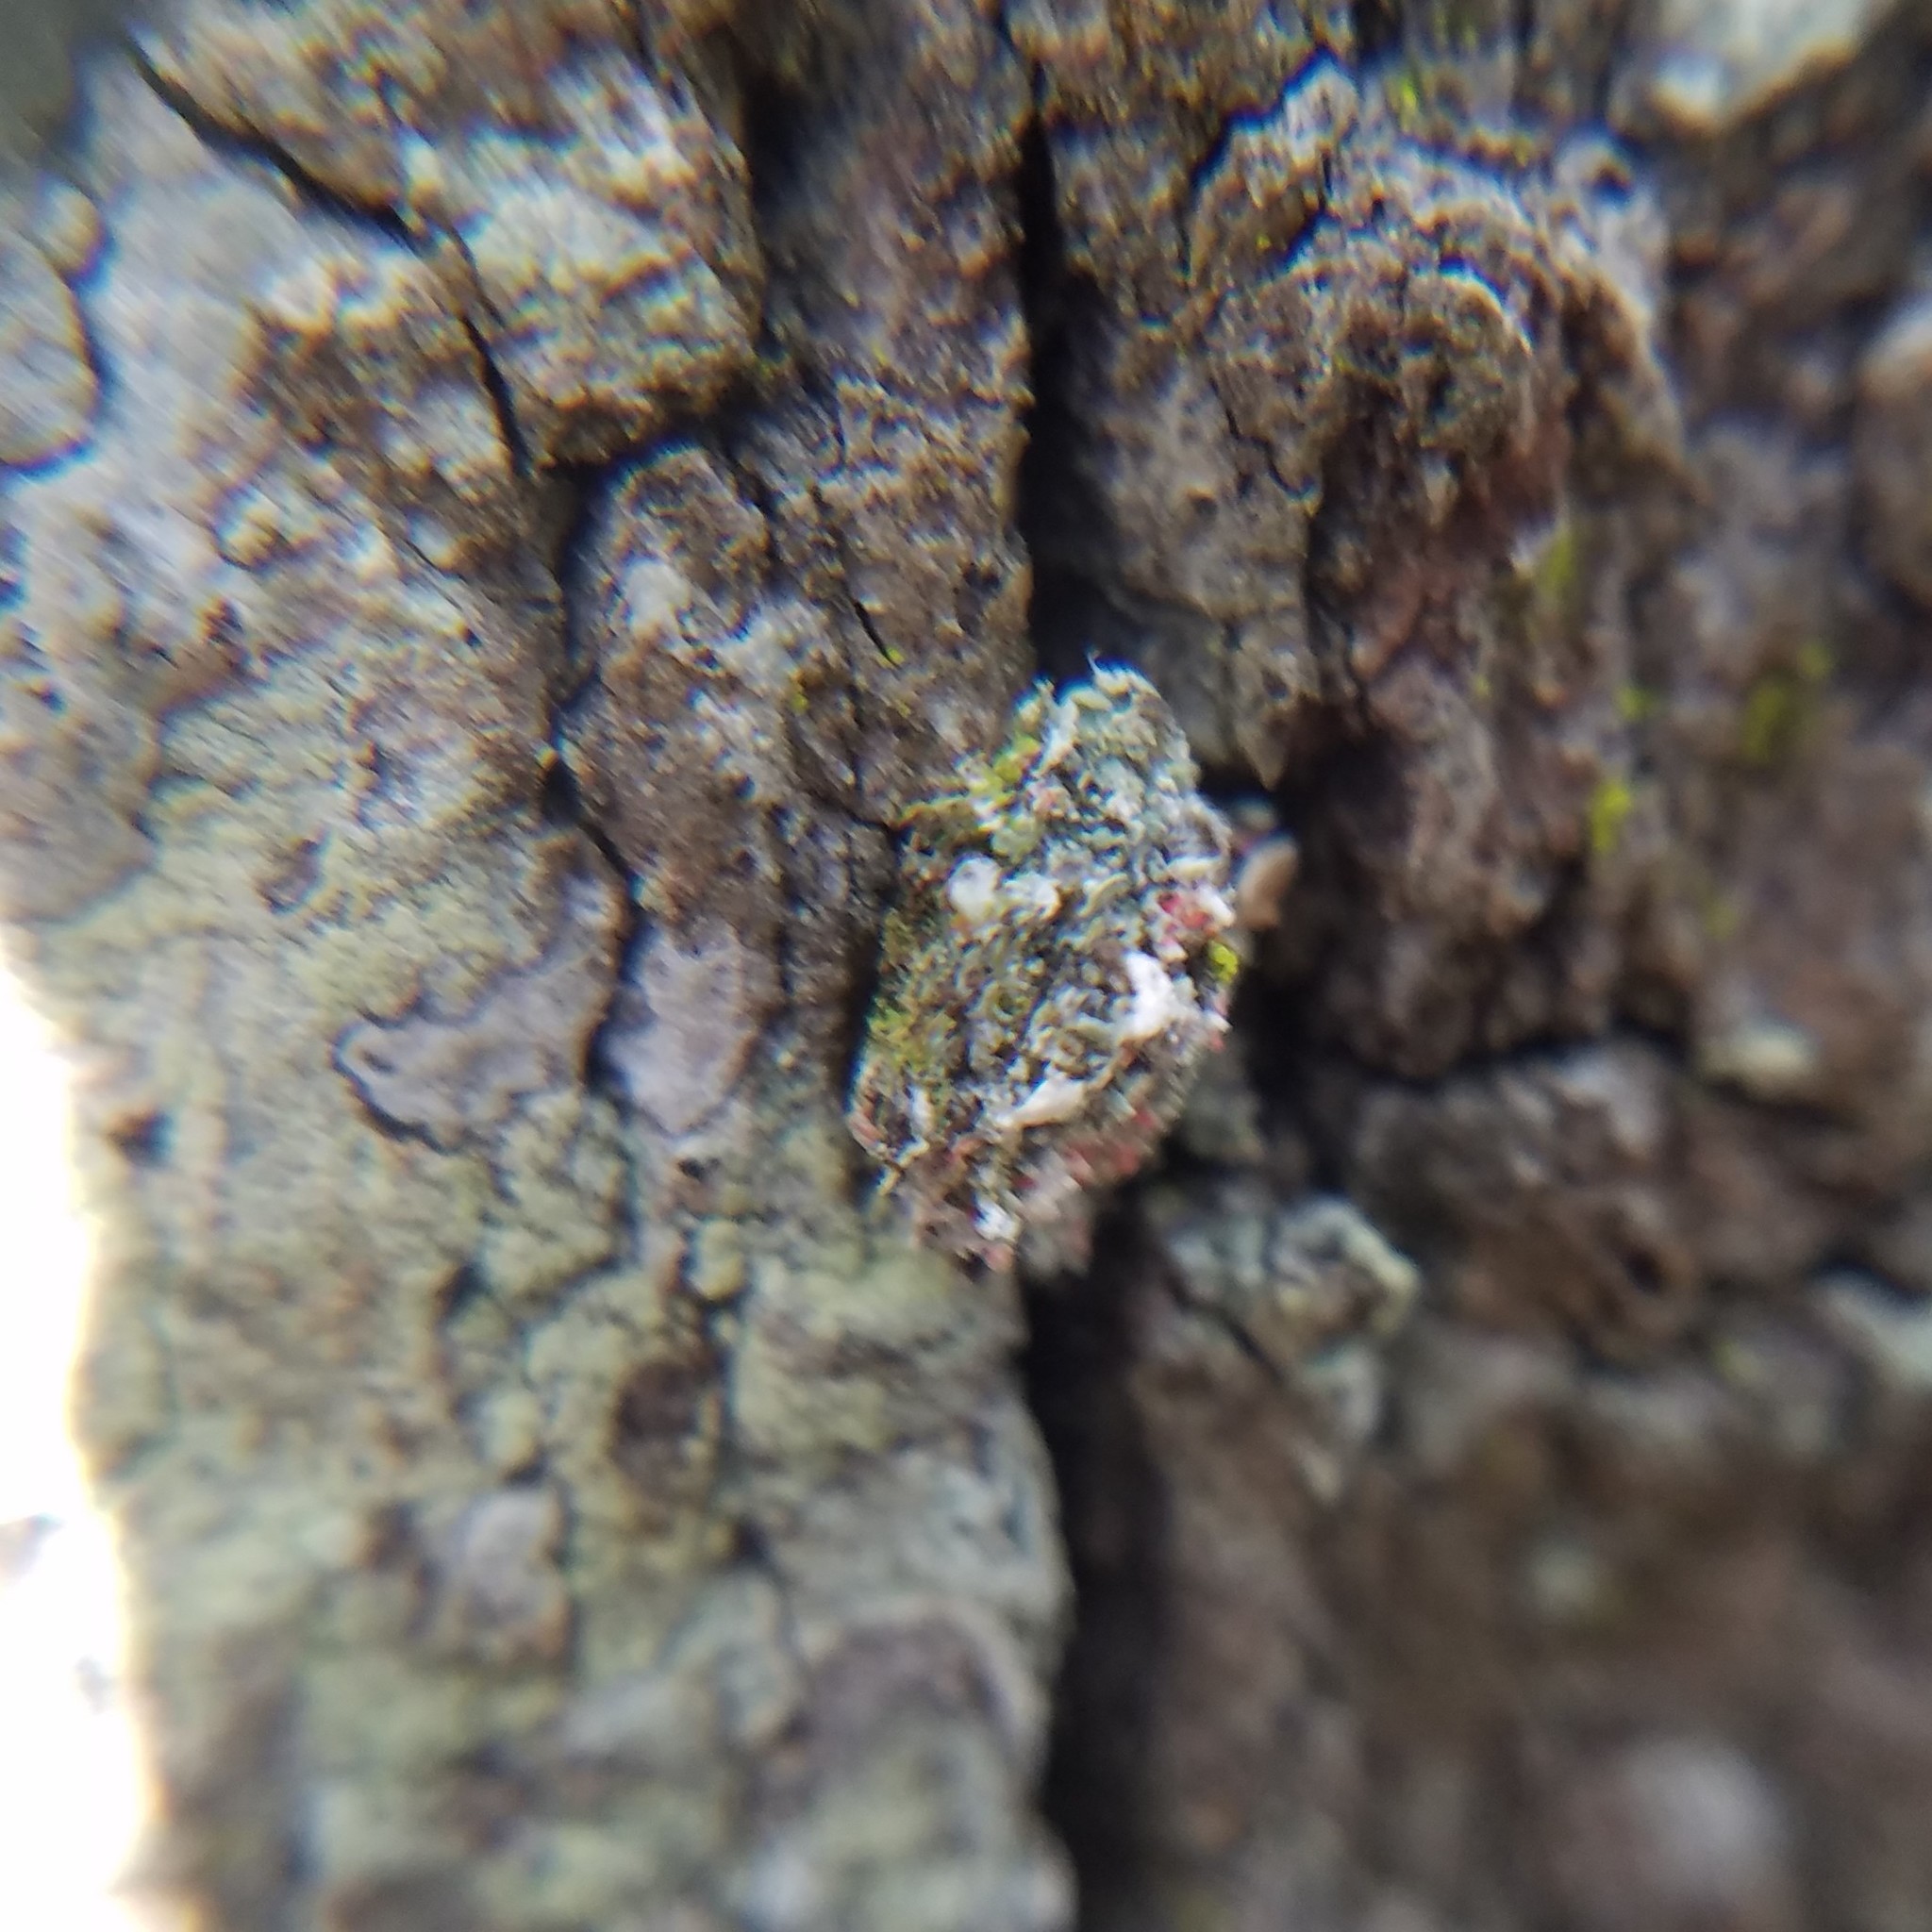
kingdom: Animalia
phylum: Arthropoda
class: Insecta
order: Neuroptera
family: Chrysopidae
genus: Leucochrysa
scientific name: Leucochrysa pavida
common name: Lichen-carrying green lacewing
